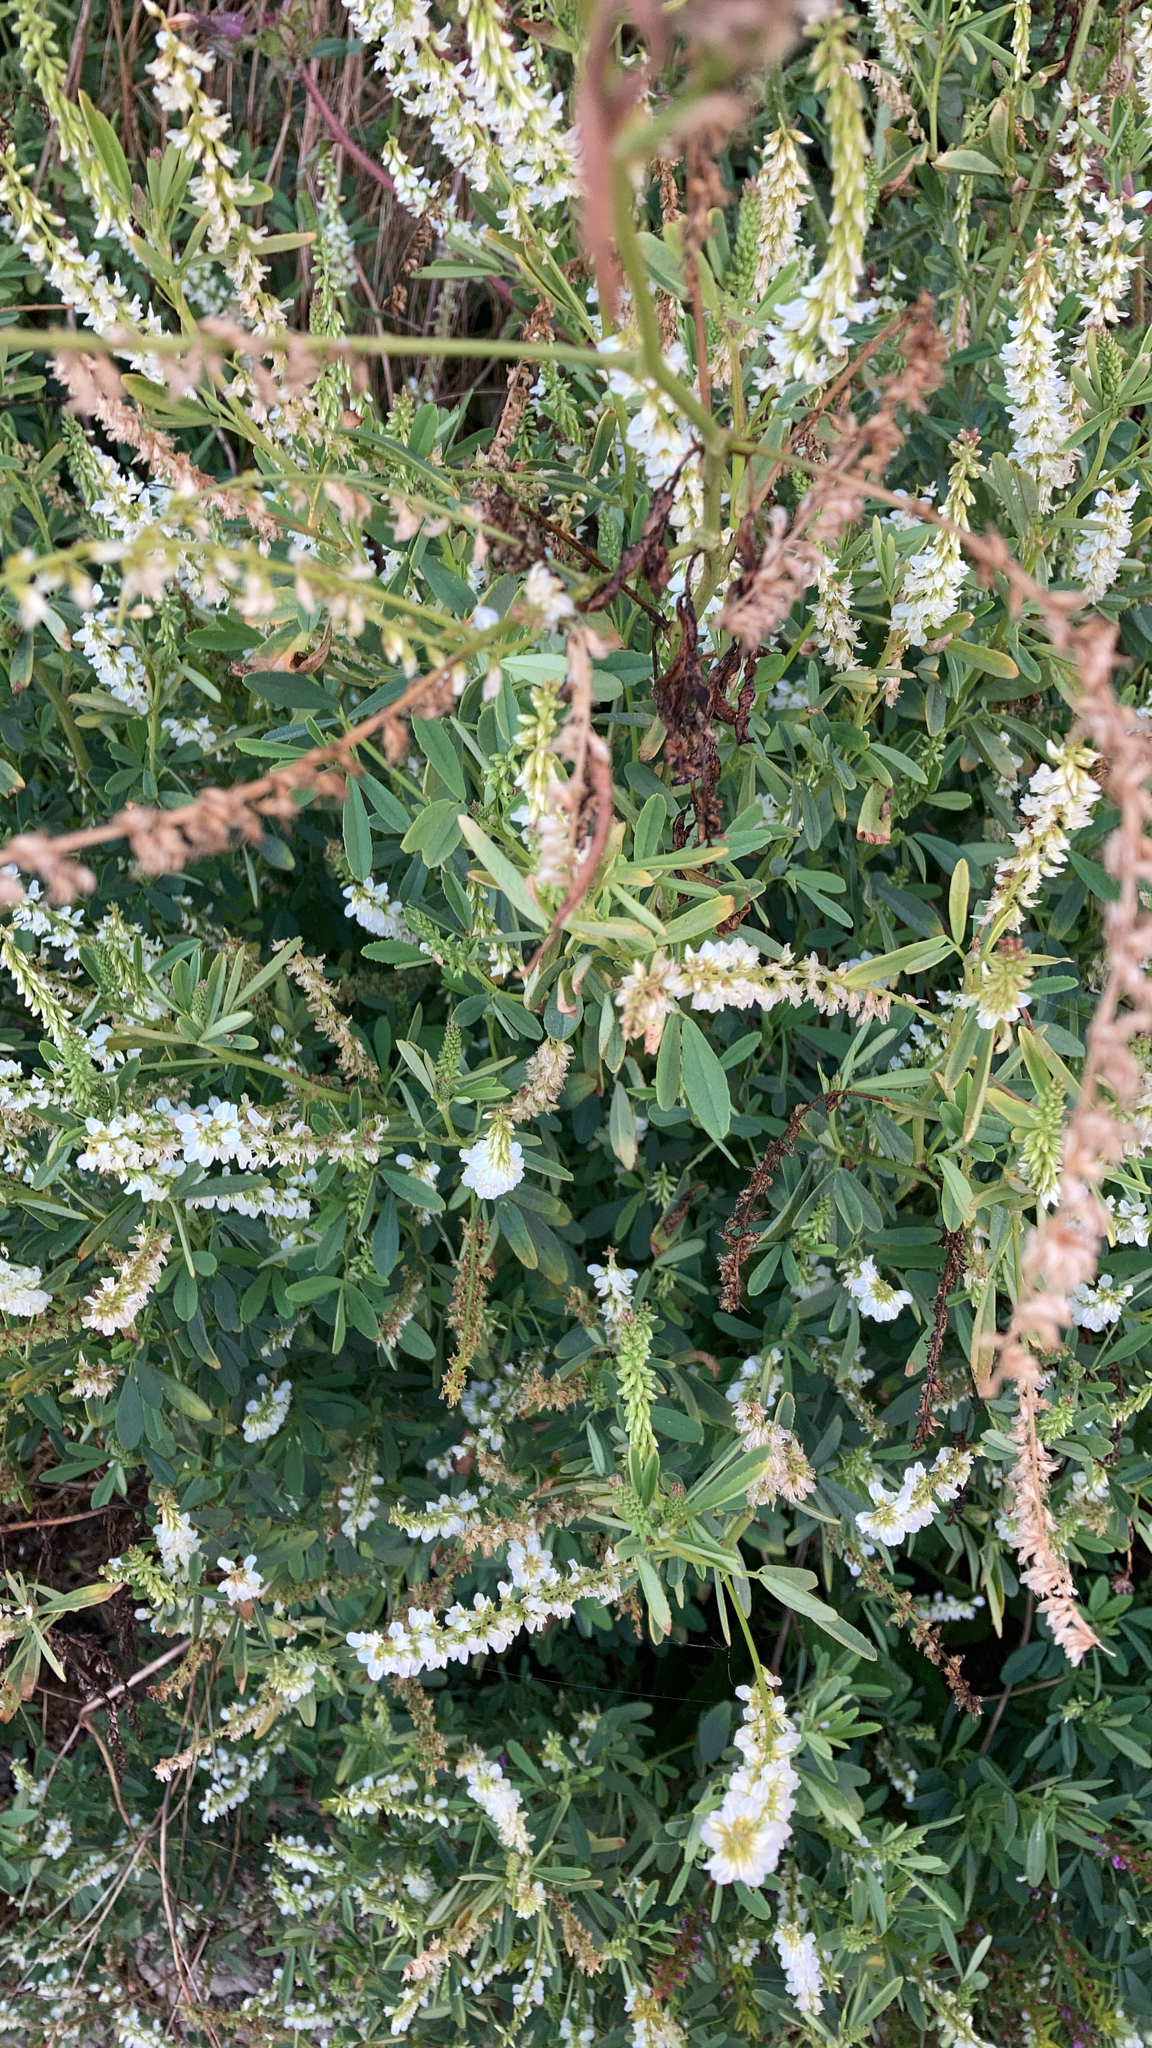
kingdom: Plantae
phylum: Tracheophyta
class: Magnoliopsida
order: Fabales
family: Fabaceae
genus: Melilotus
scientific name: Melilotus albus
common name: White melilot
